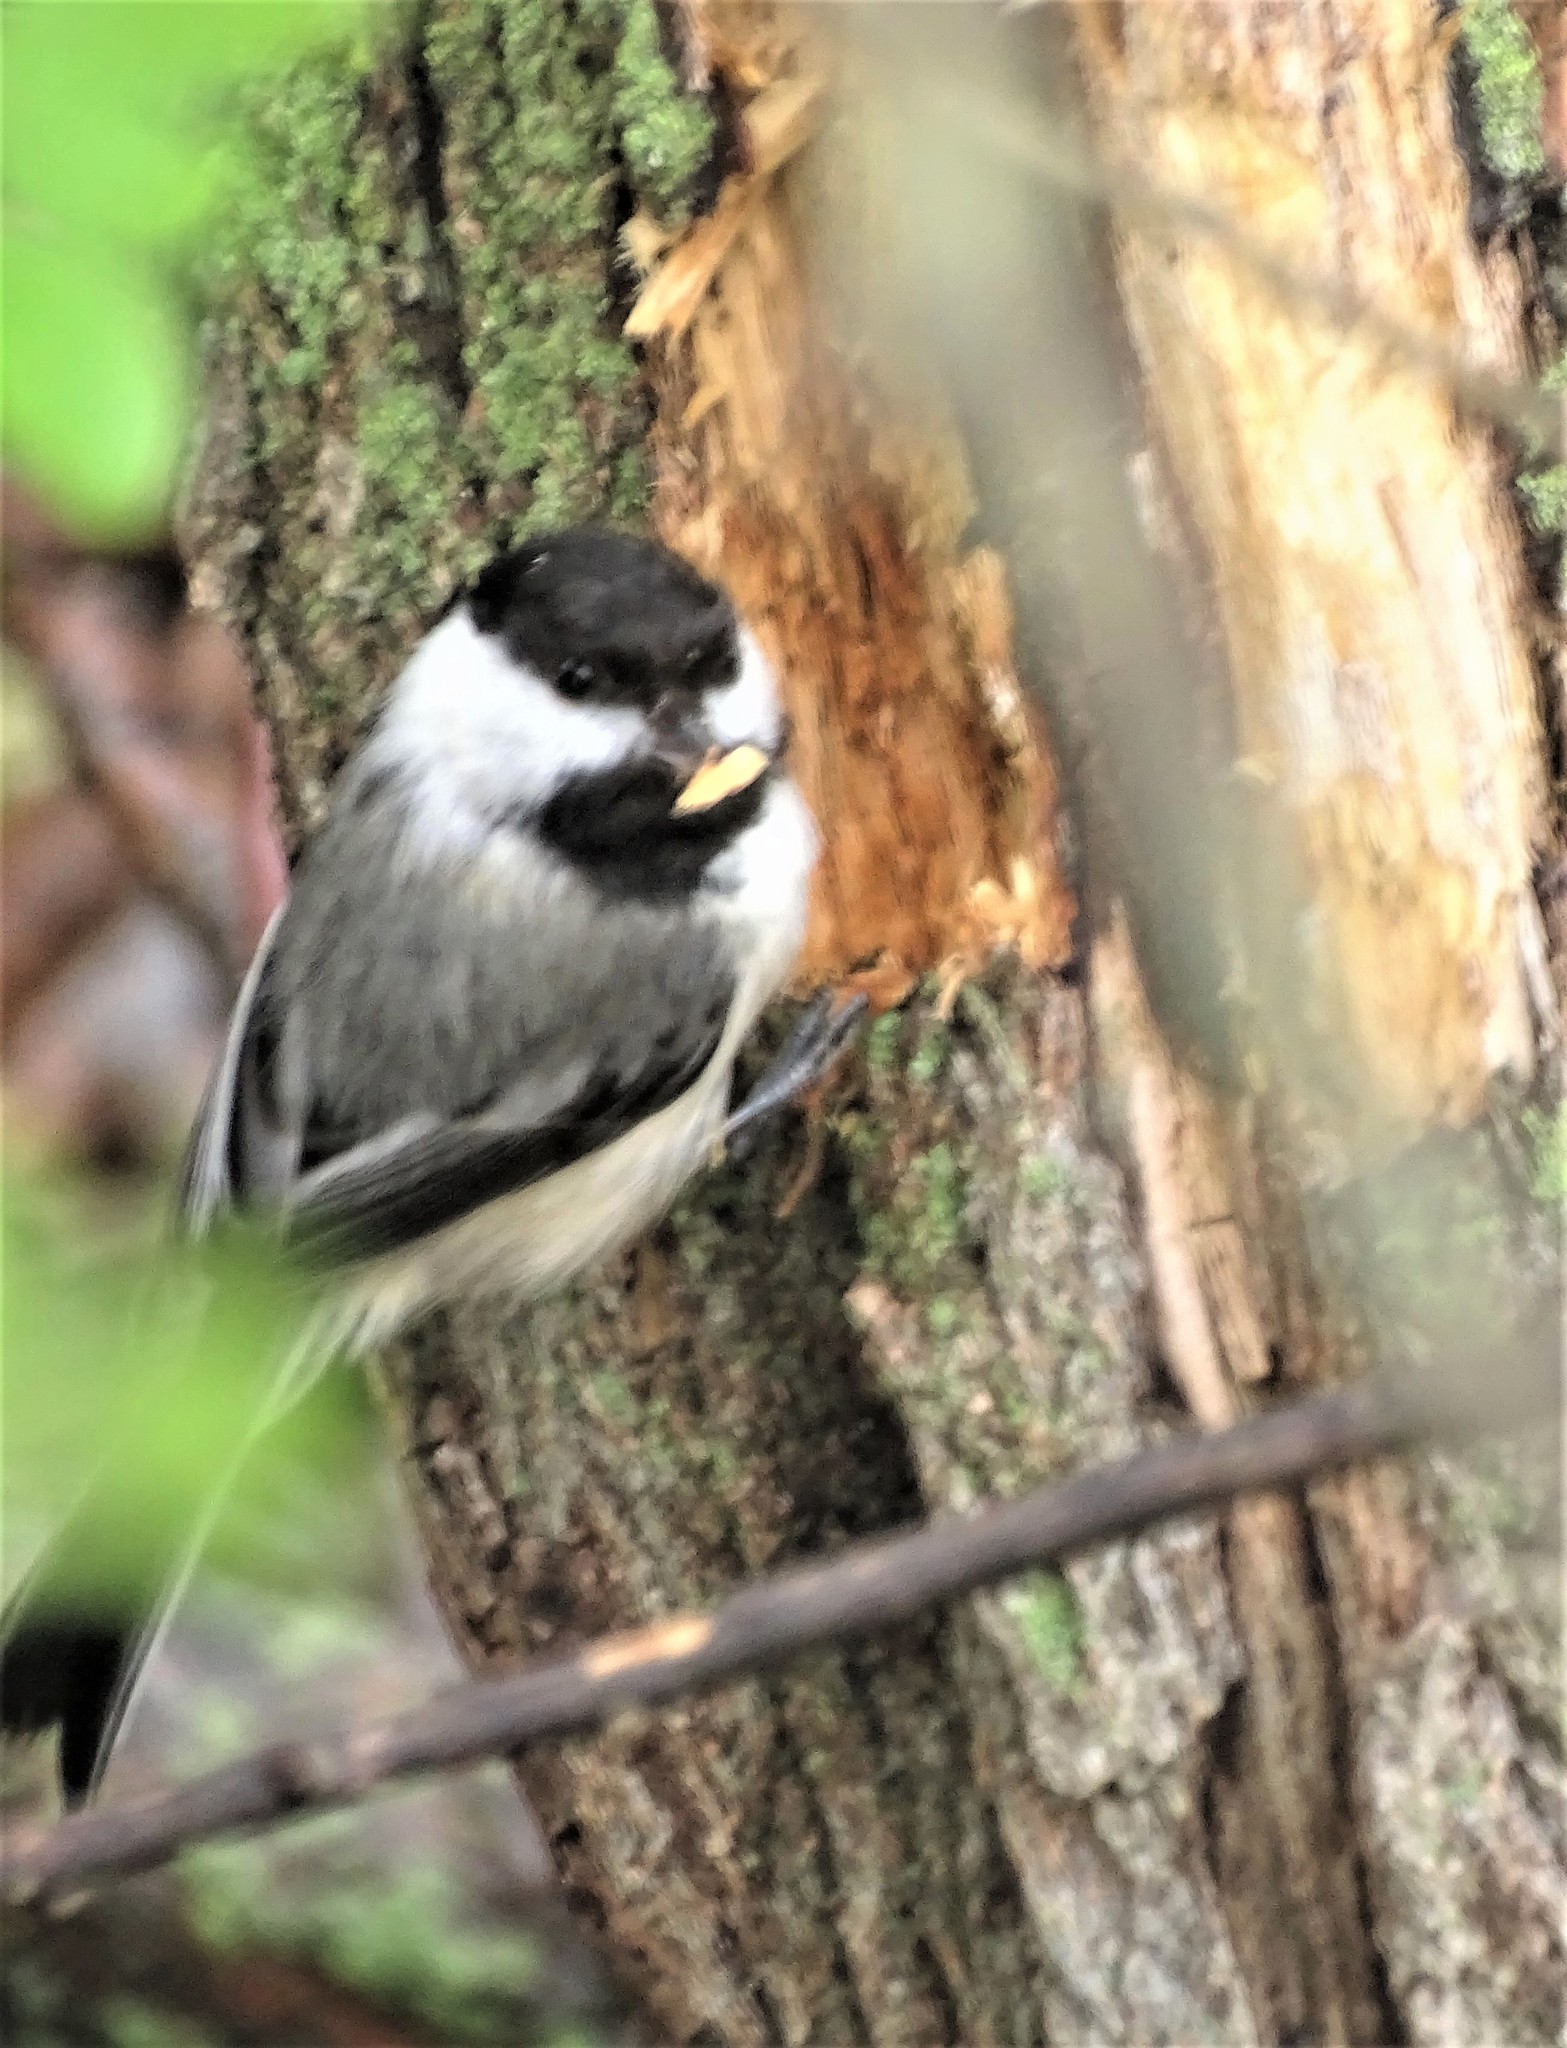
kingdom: Animalia
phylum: Chordata
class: Aves
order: Passeriformes
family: Paridae
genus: Poecile
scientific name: Poecile atricapillus
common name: Black-capped chickadee
